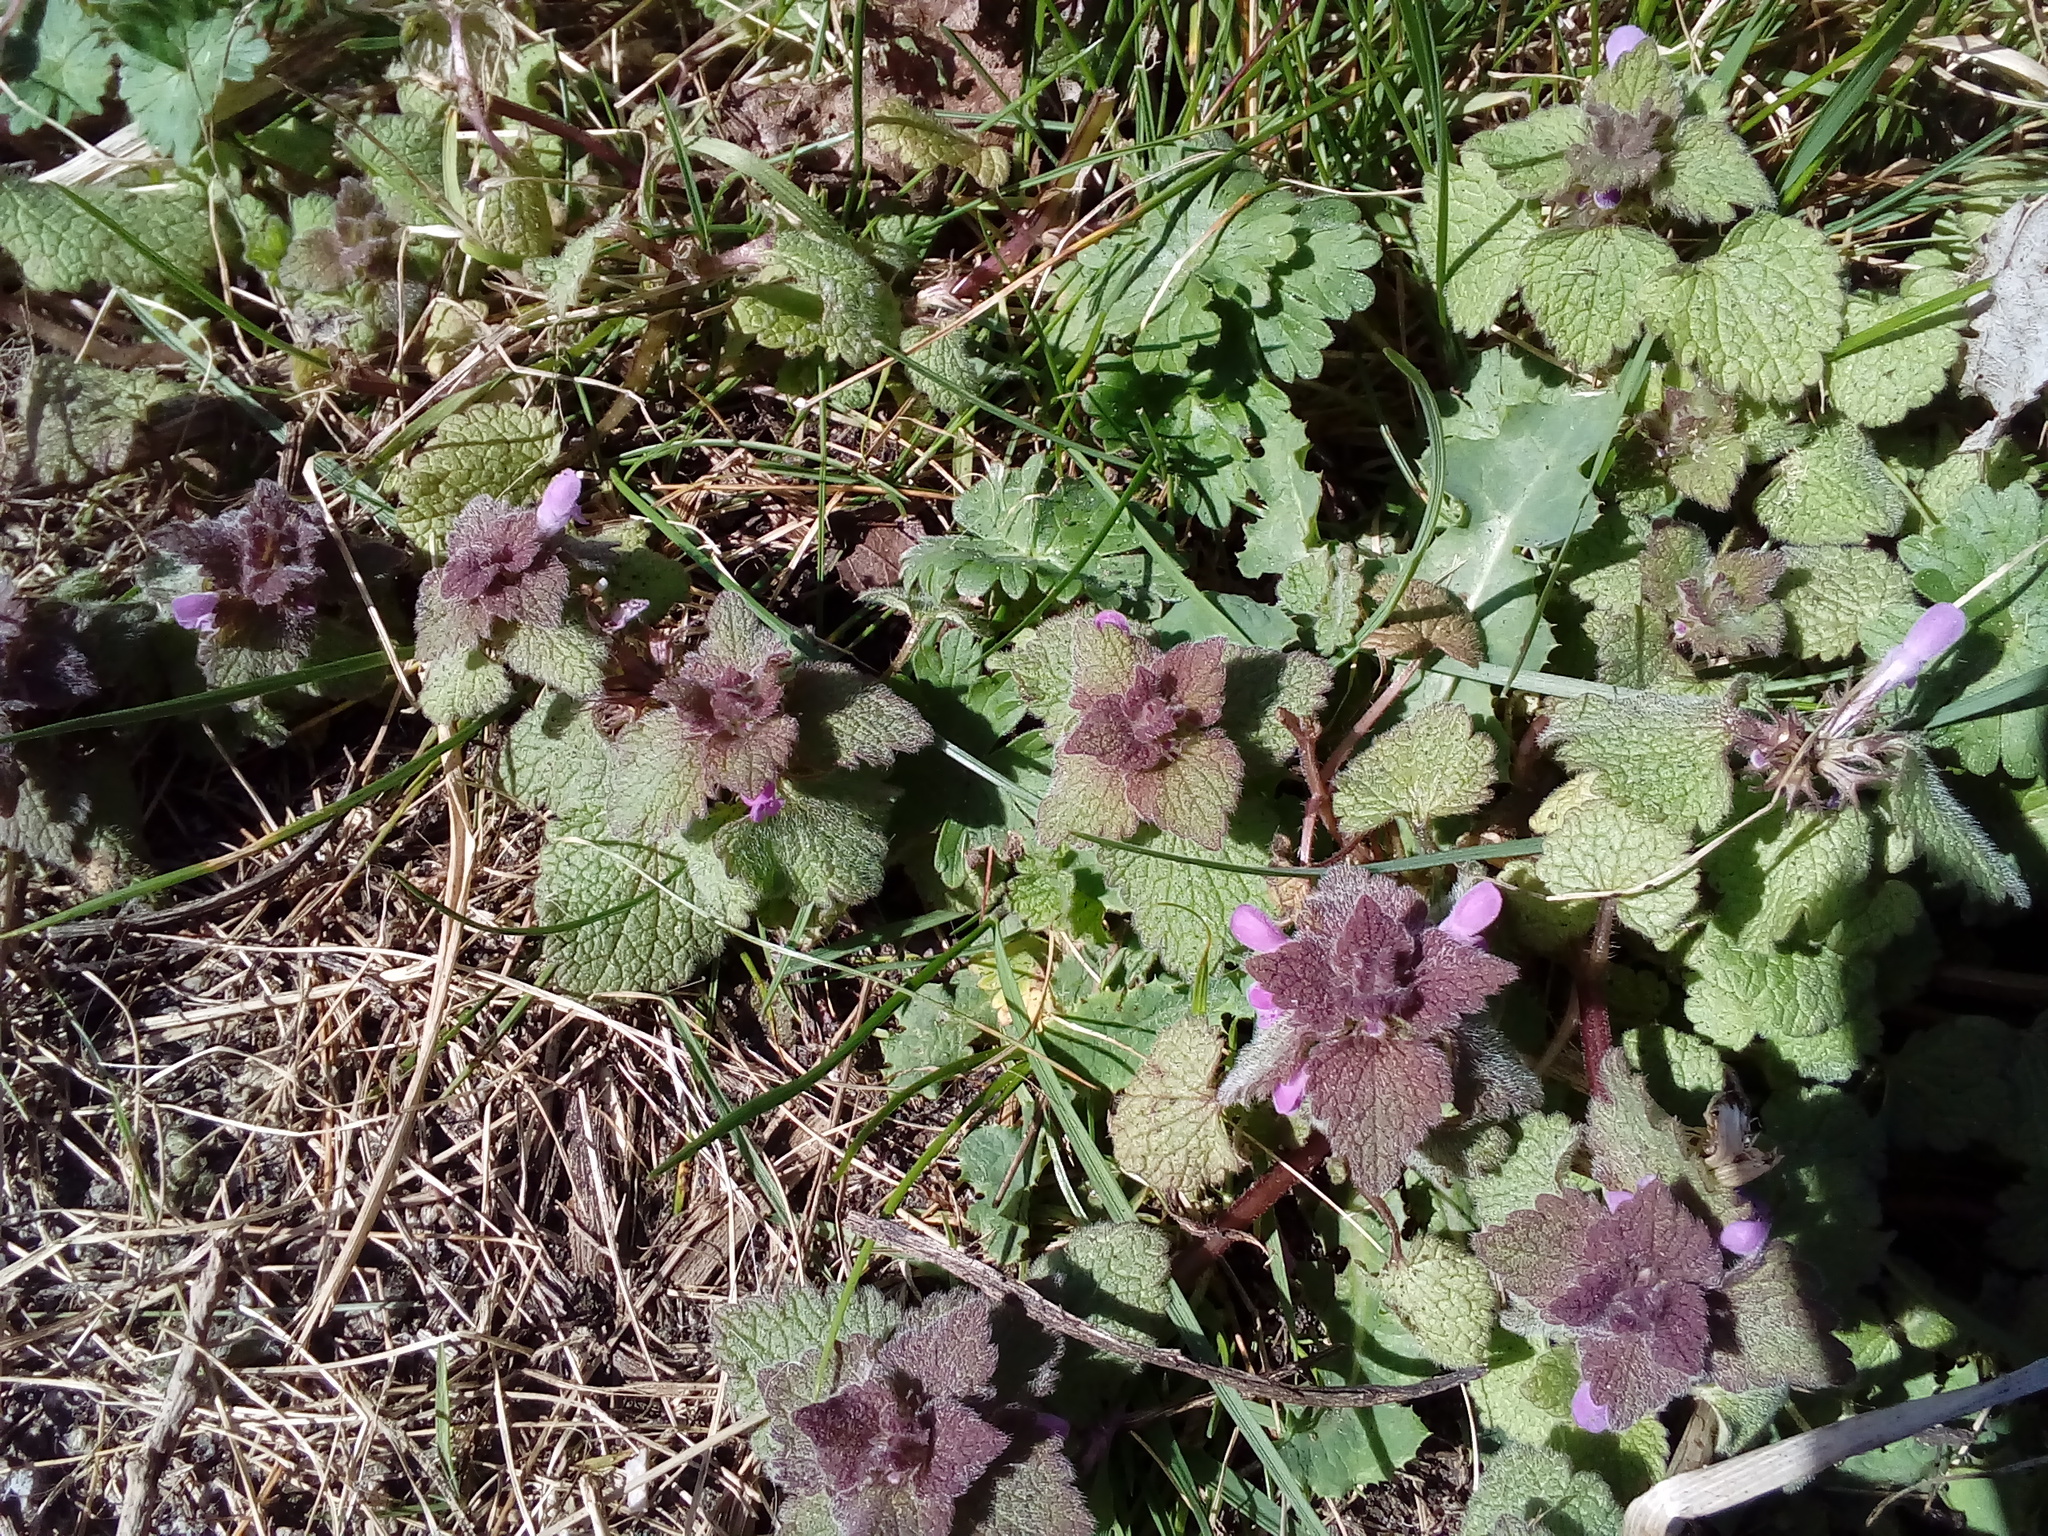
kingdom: Plantae
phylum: Tracheophyta
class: Magnoliopsida
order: Lamiales
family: Lamiaceae
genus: Lamium
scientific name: Lamium purpureum
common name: Red dead-nettle
